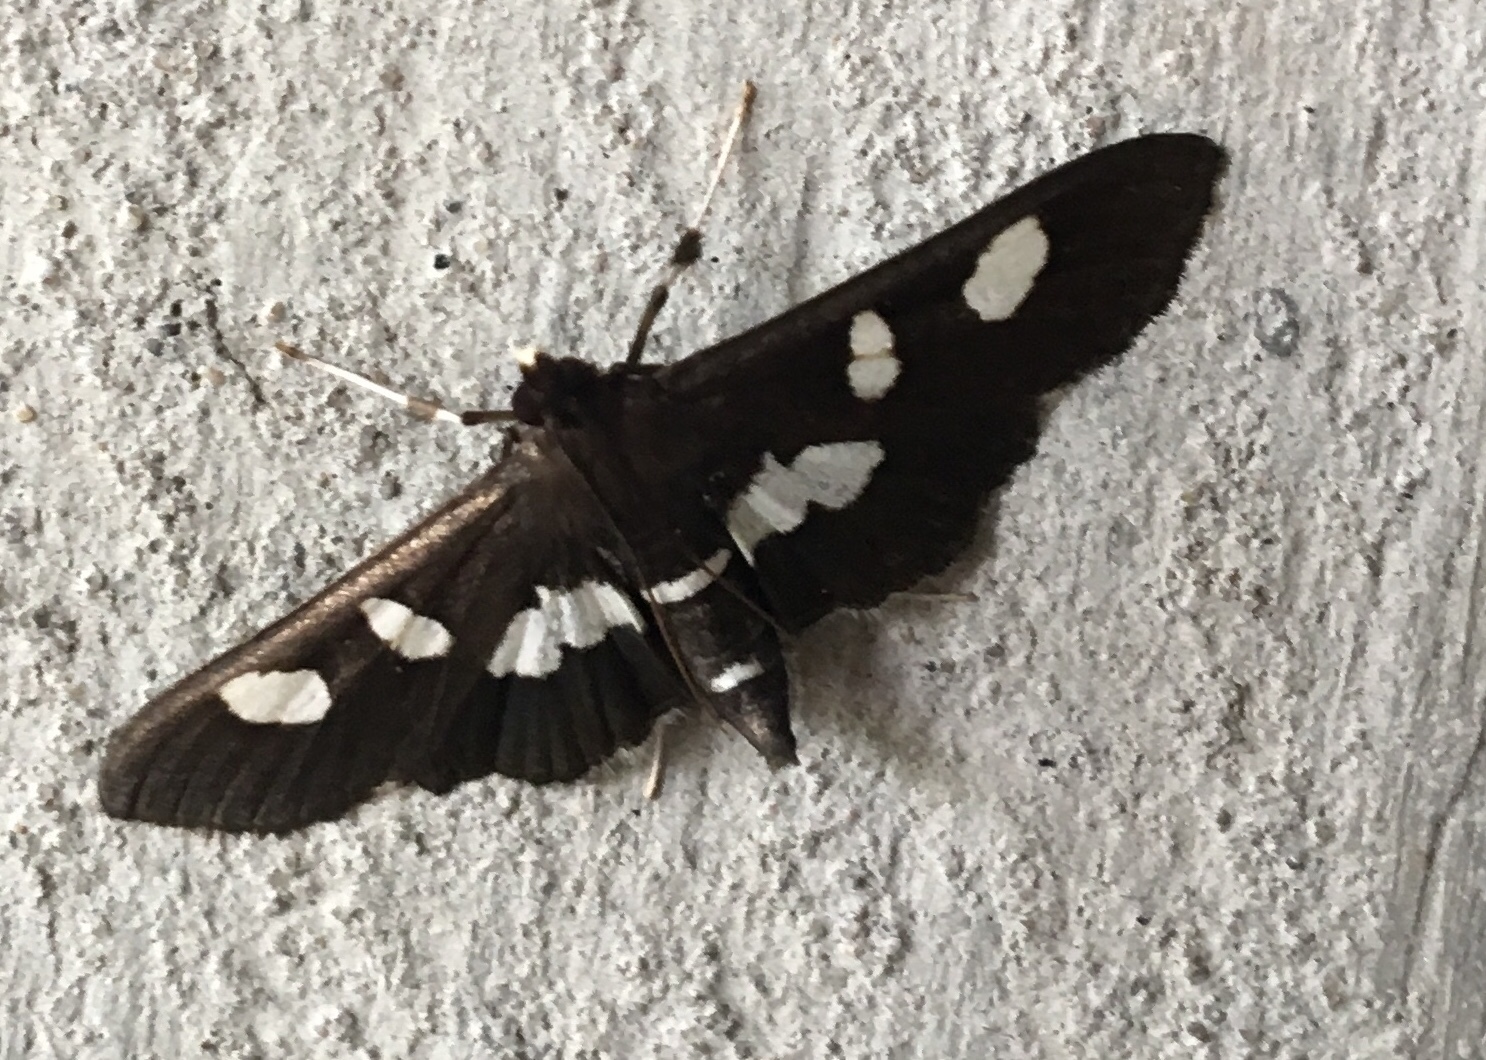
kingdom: Animalia
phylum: Arthropoda
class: Insecta
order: Lepidoptera
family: Crambidae
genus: Desmia
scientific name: Desmia
